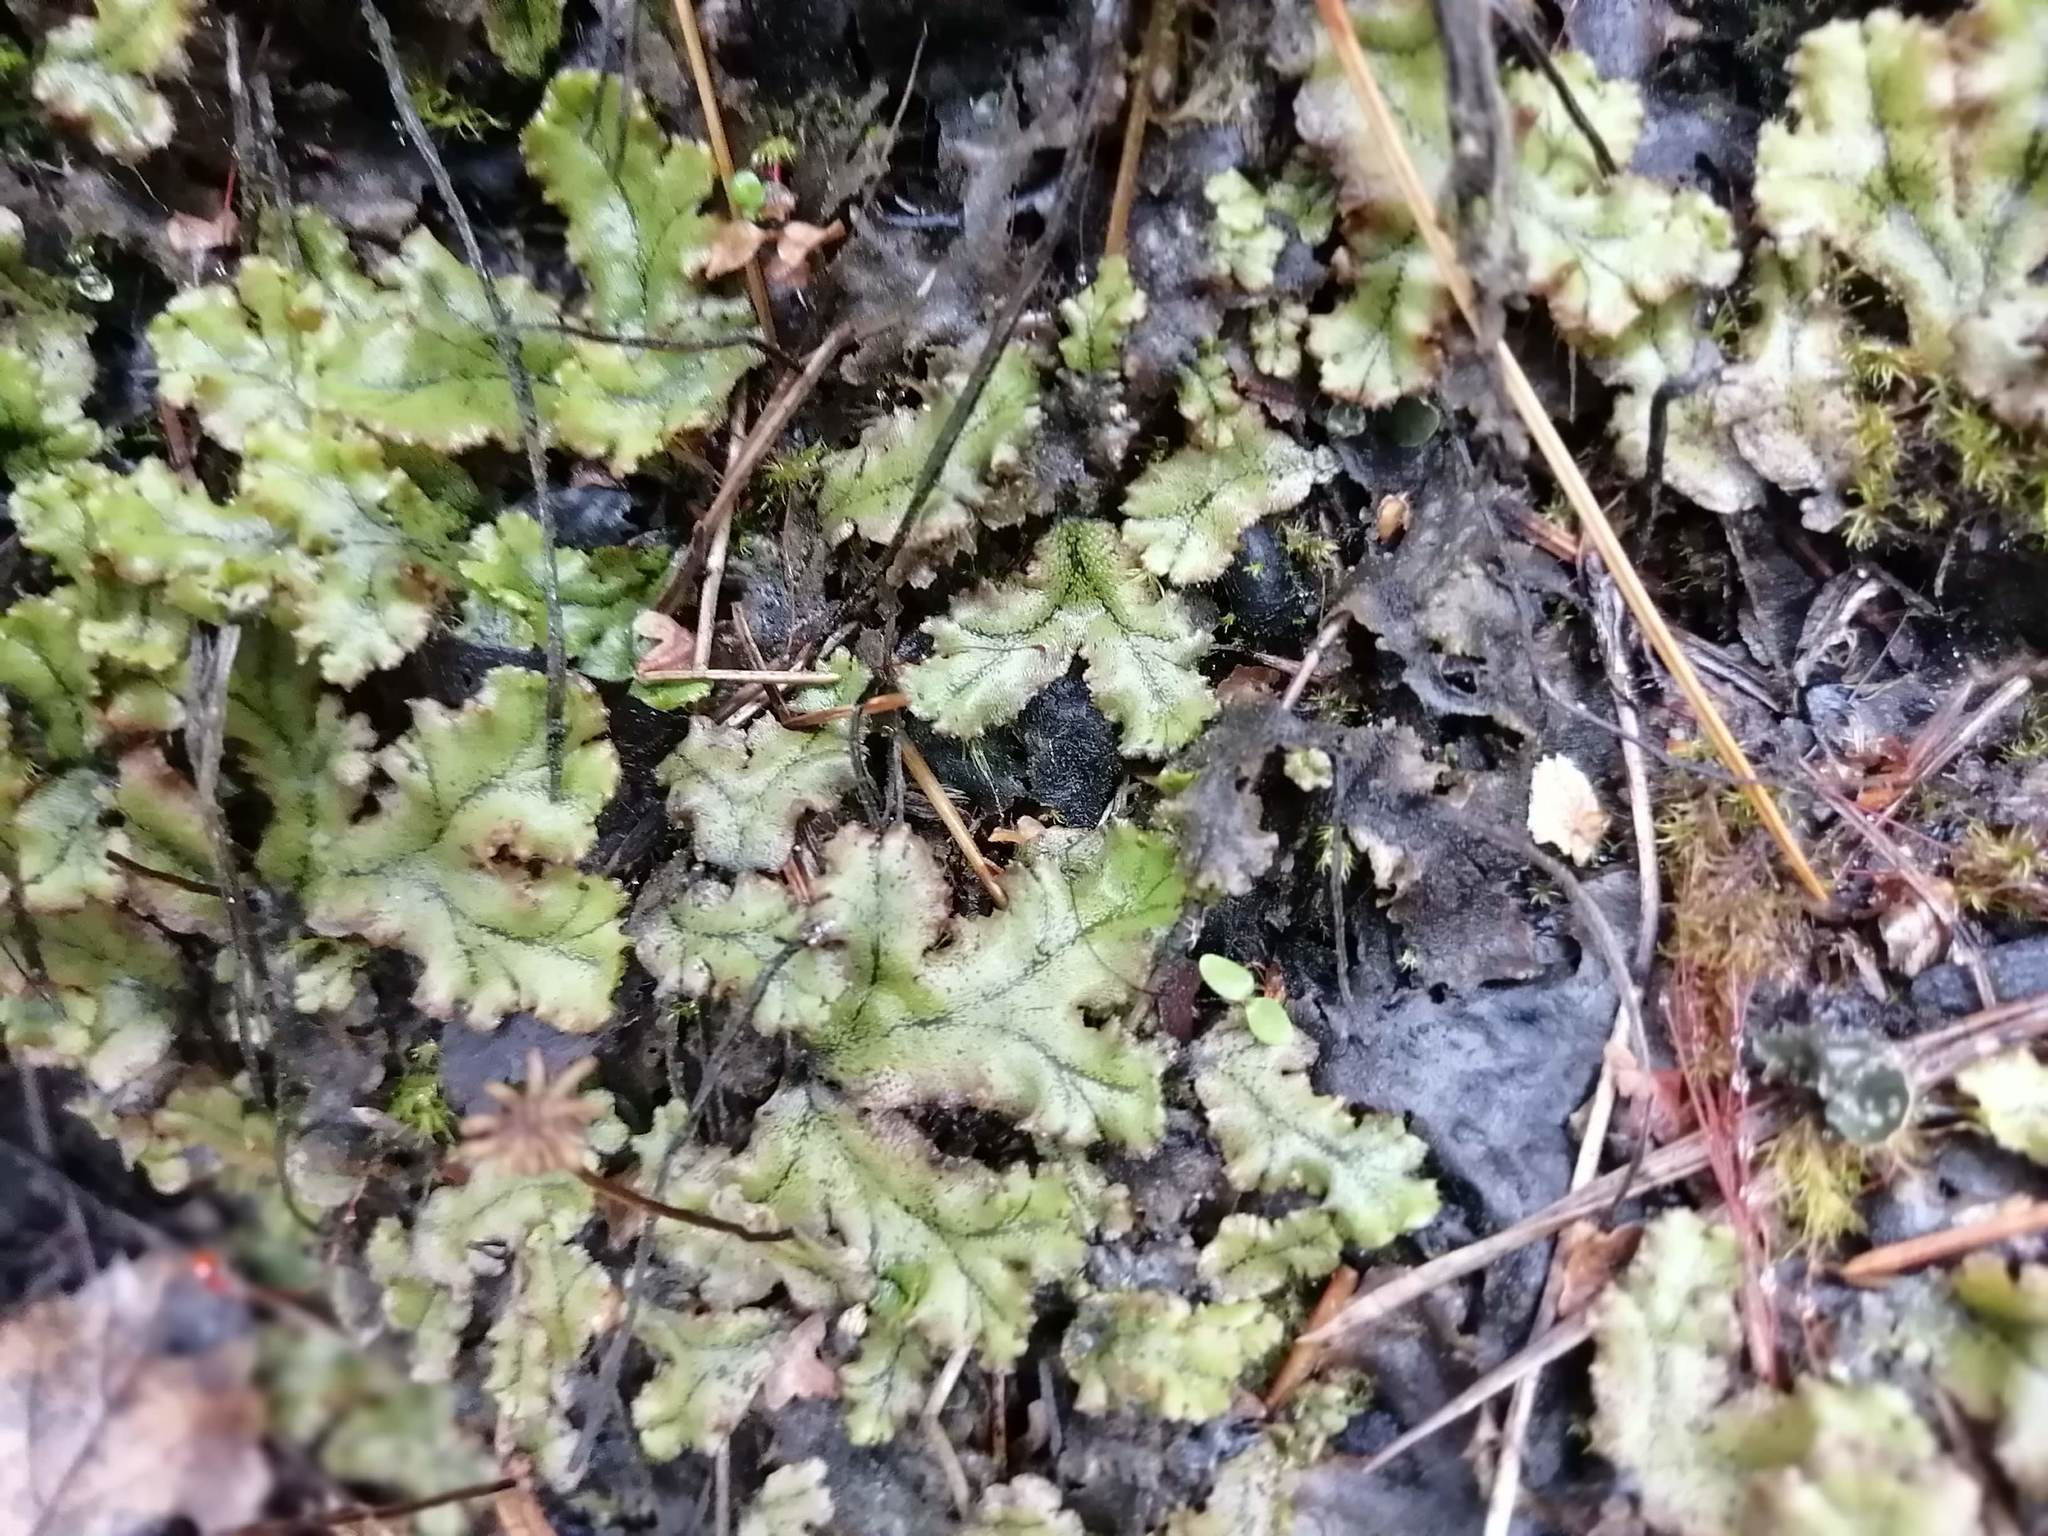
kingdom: Plantae
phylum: Marchantiophyta
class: Marchantiopsida
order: Marchantiales
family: Marchantiaceae
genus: Marchantia
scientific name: Marchantia polymorpha
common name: Common liverwort
